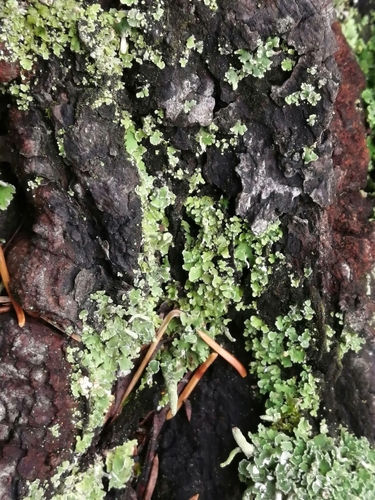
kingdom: Fungi
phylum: Ascomycota
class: Lecanoromycetes
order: Lecanorales
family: Cladoniaceae
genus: Cladonia
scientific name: Cladonia
